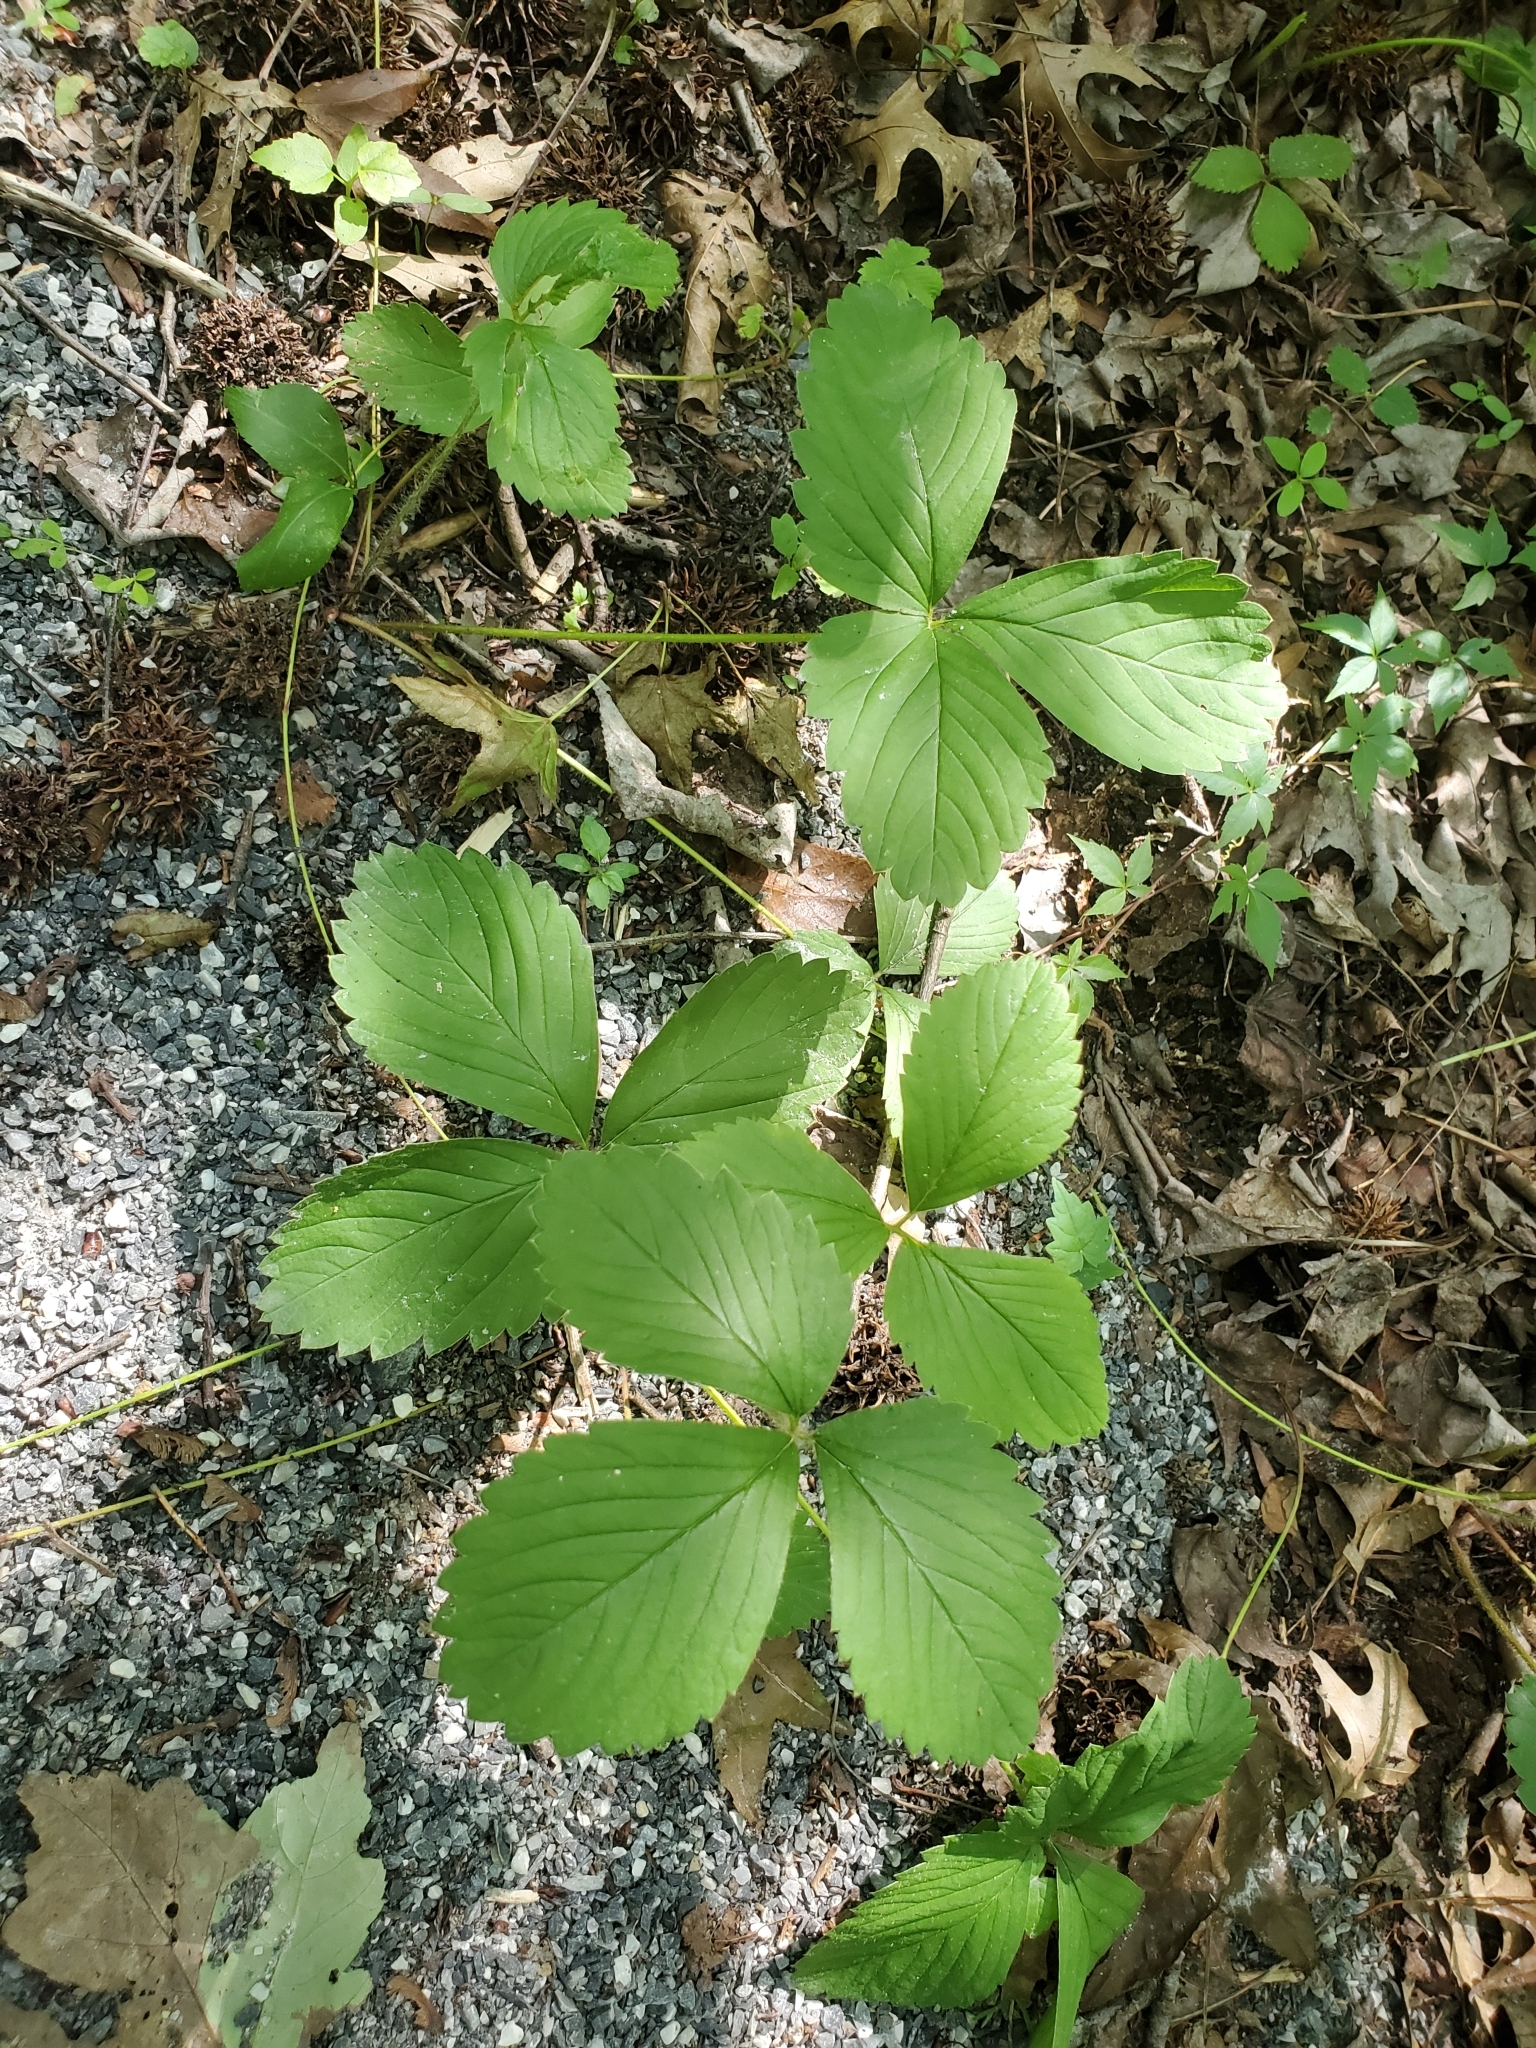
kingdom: Plantae
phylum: Tracheophyta
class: Magnoliopsida
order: Rosales
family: Rosaceae
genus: Fragaria
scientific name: Fragaria virginiana
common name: Thickleaved wild strawberry
